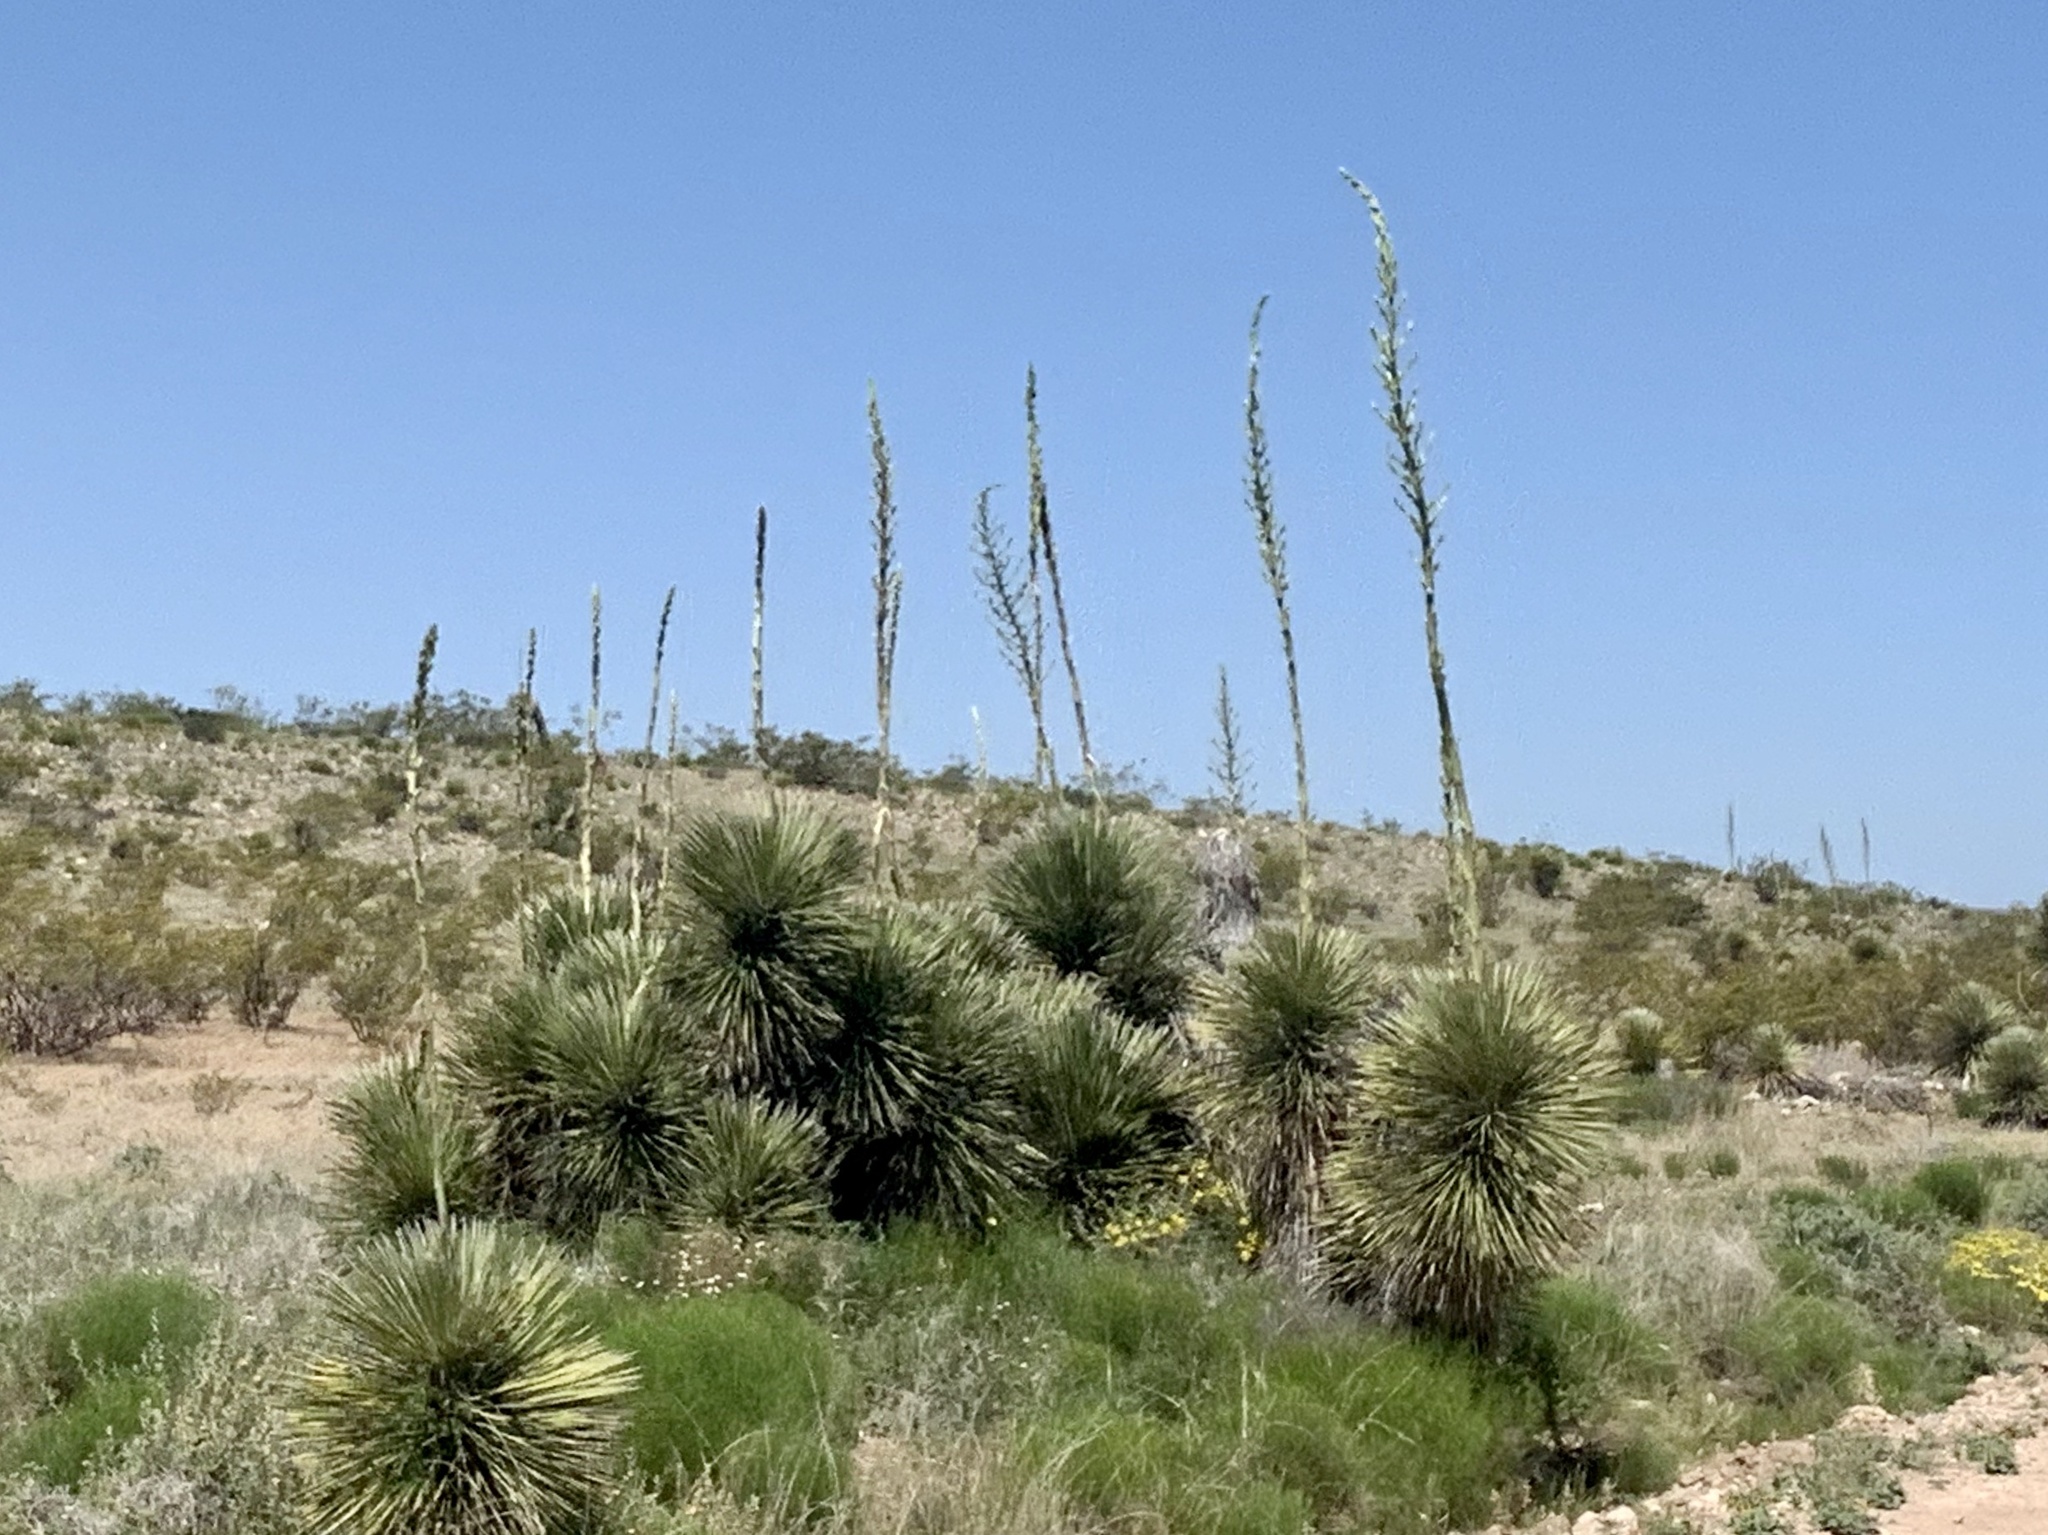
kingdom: Plantae
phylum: Tracheophyta
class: Liliopsida
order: Asparagales
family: Asparagaceae
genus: Yucca
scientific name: Yucca elata
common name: Palmella
